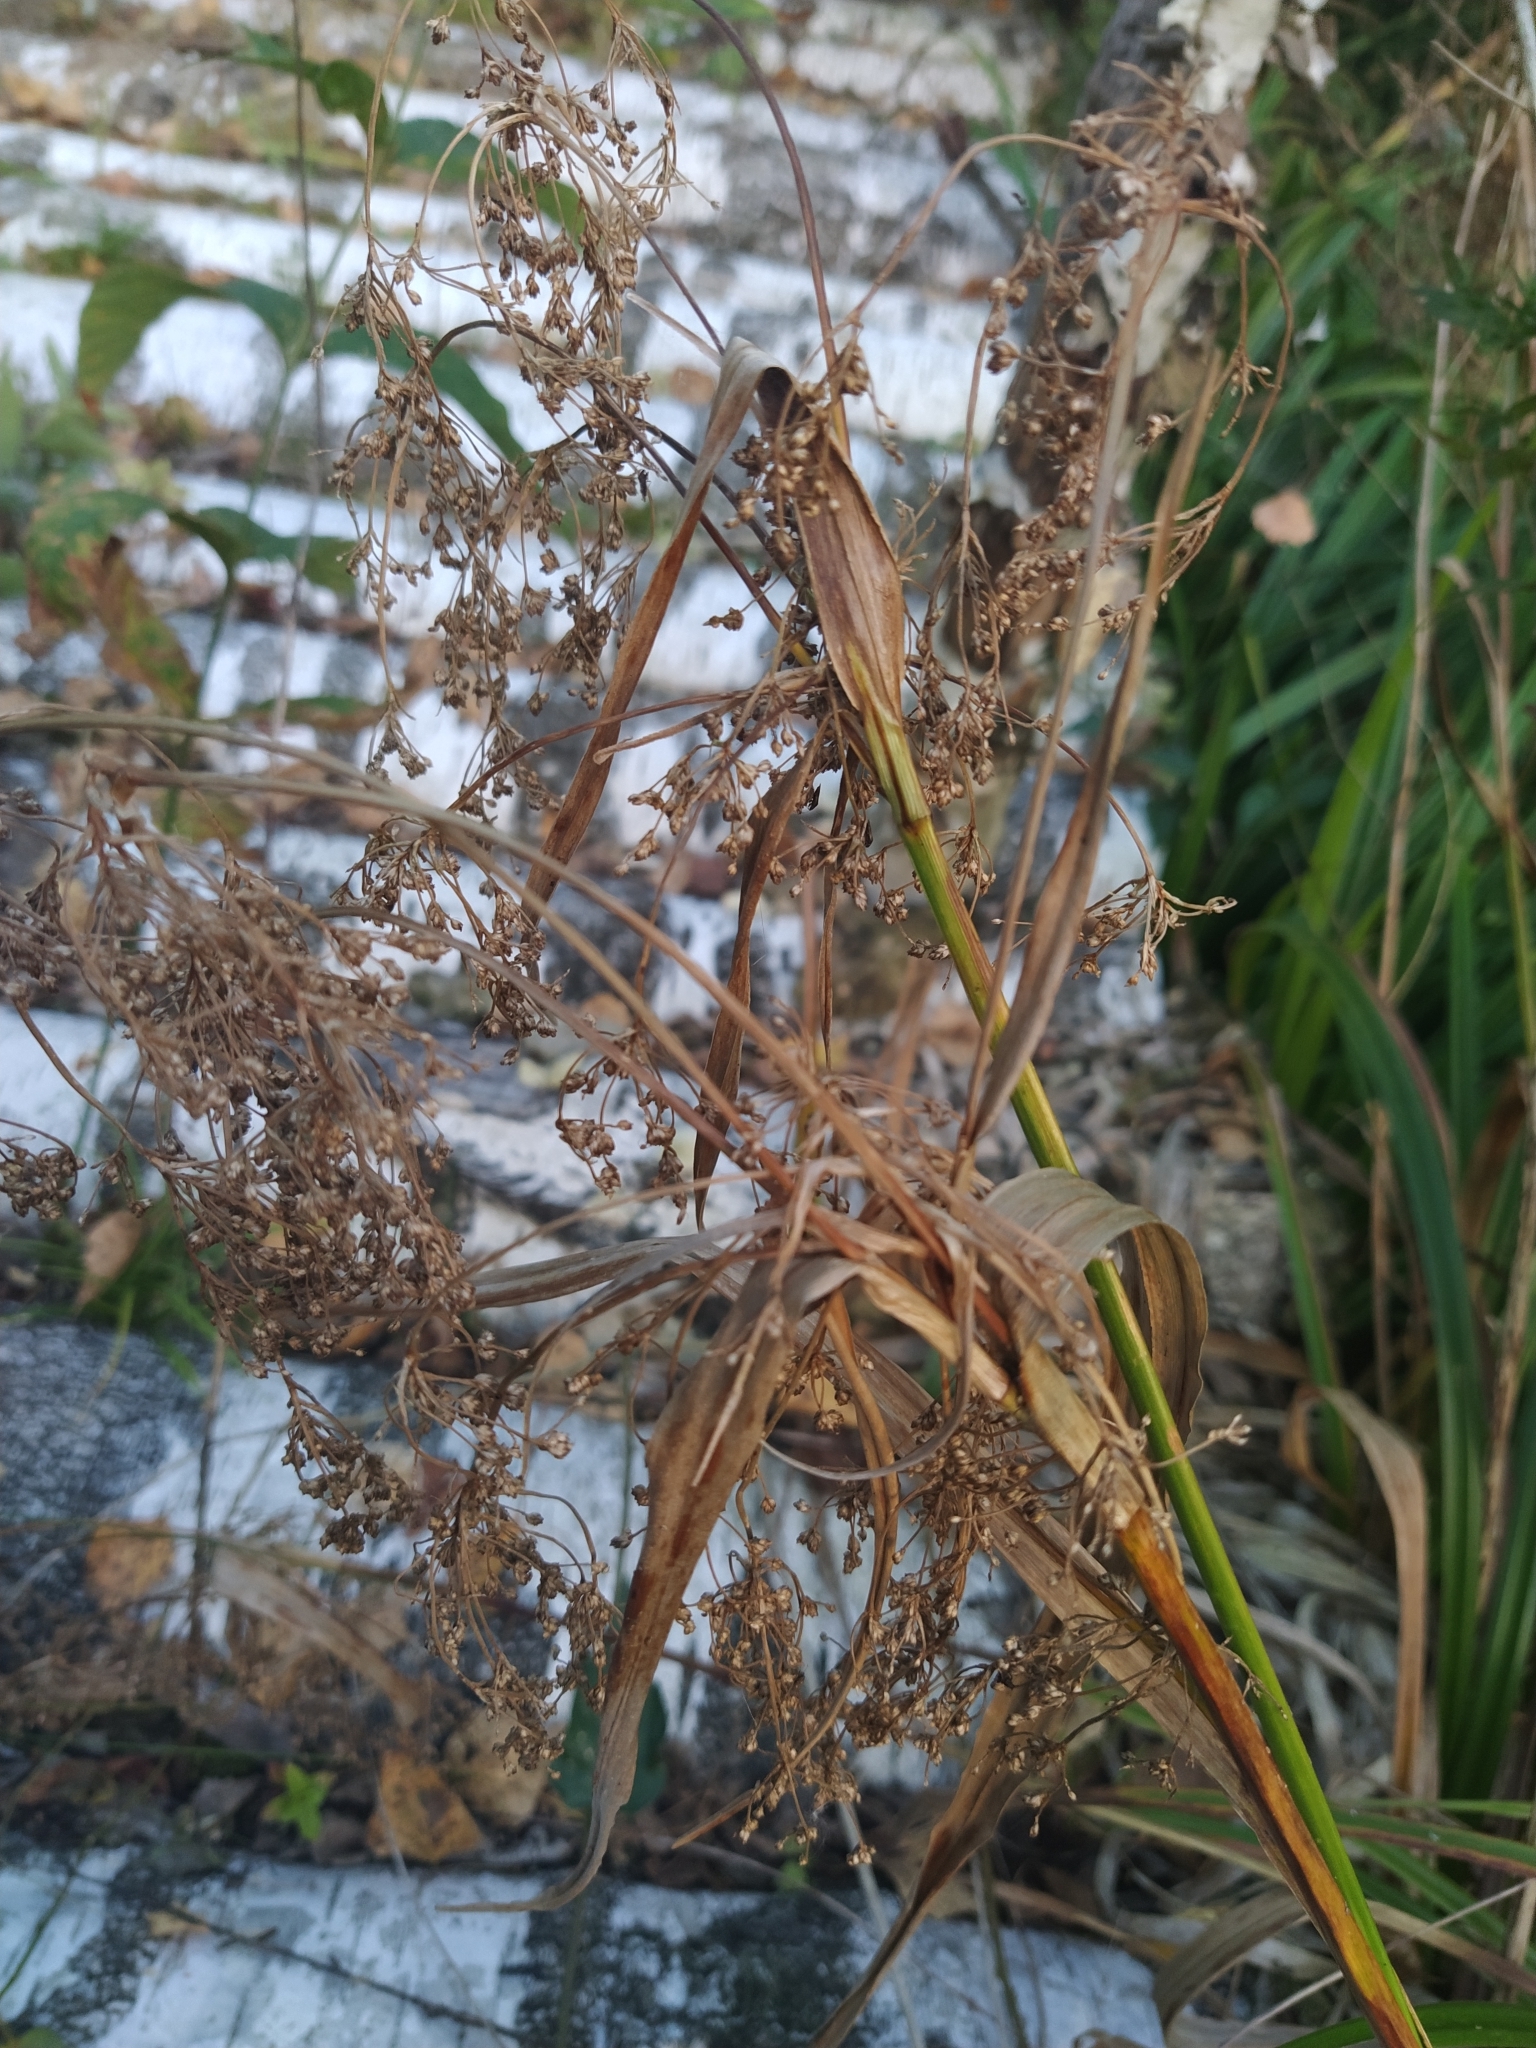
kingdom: Plantae
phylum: Tracheophyta
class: Liliopsida
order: Poales
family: Cyperaceae
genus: Scirpus
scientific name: Scirpus sylvaticus
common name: Wood club-rush
